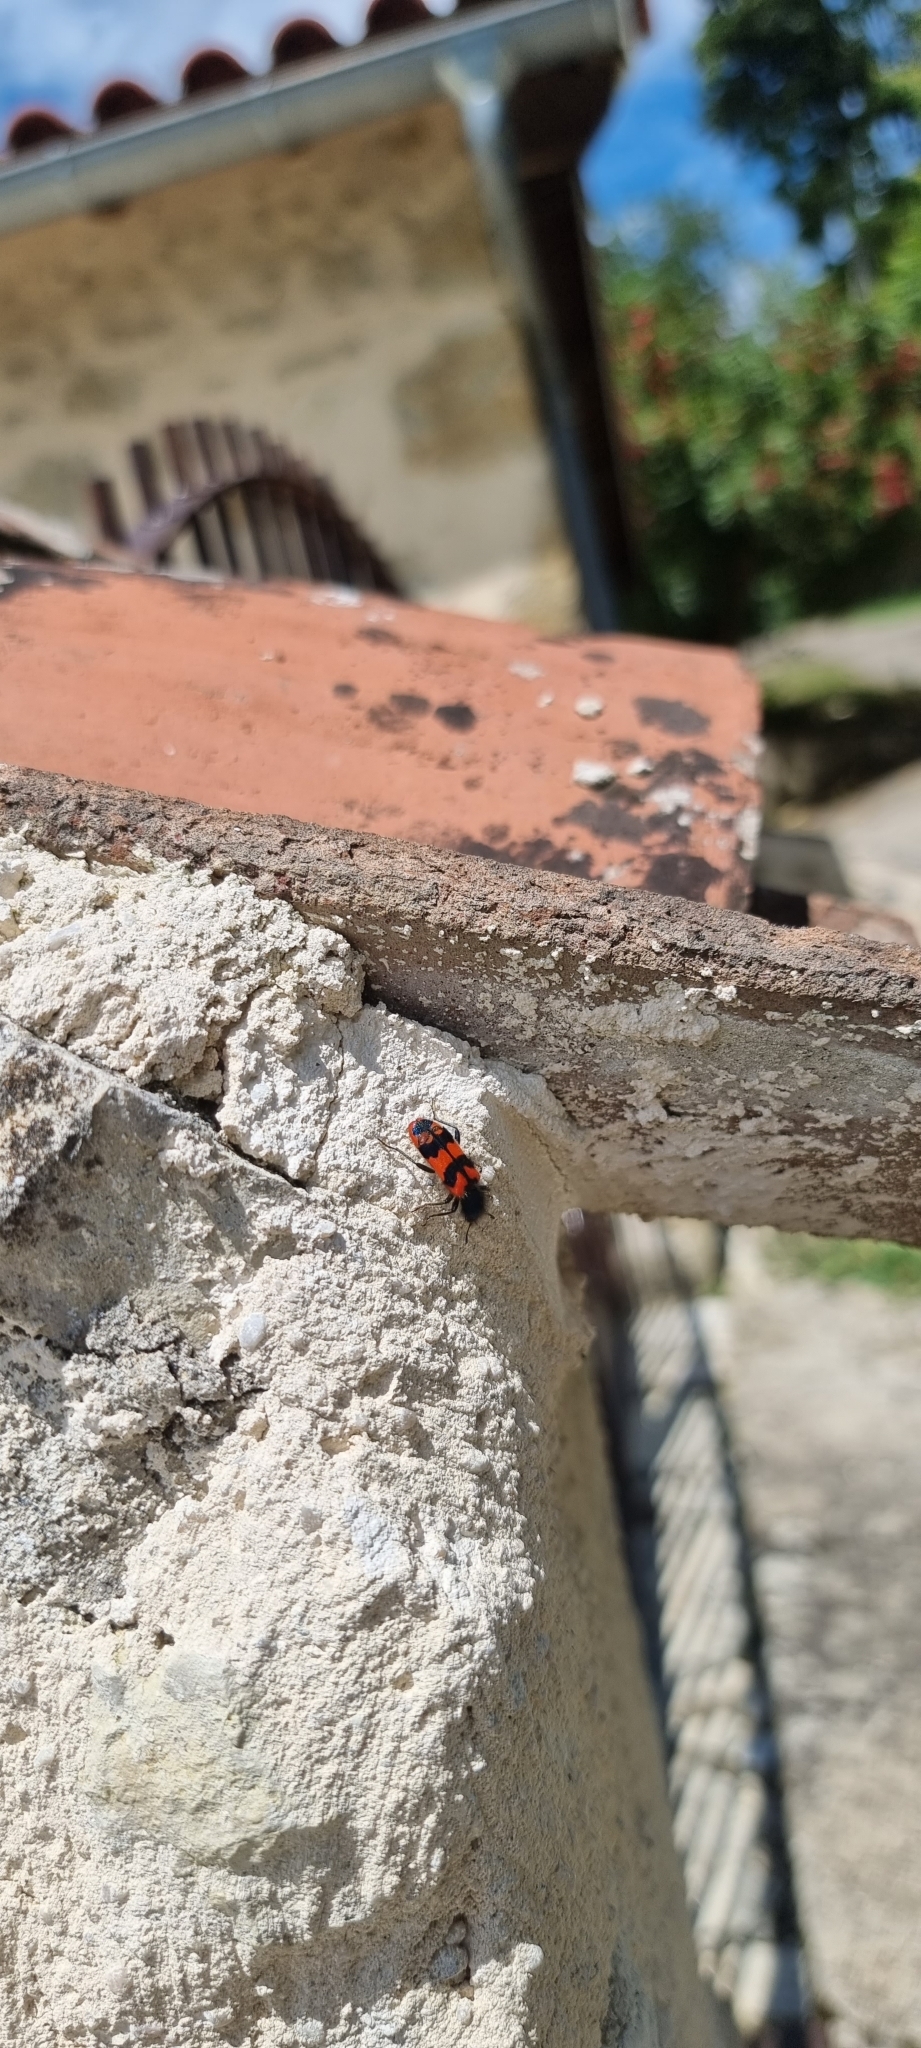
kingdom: Animalia
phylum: Arthropoda
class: Insecta
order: Coleoptera
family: Cleridae
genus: Trichodes
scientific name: Trichodes alvearius
